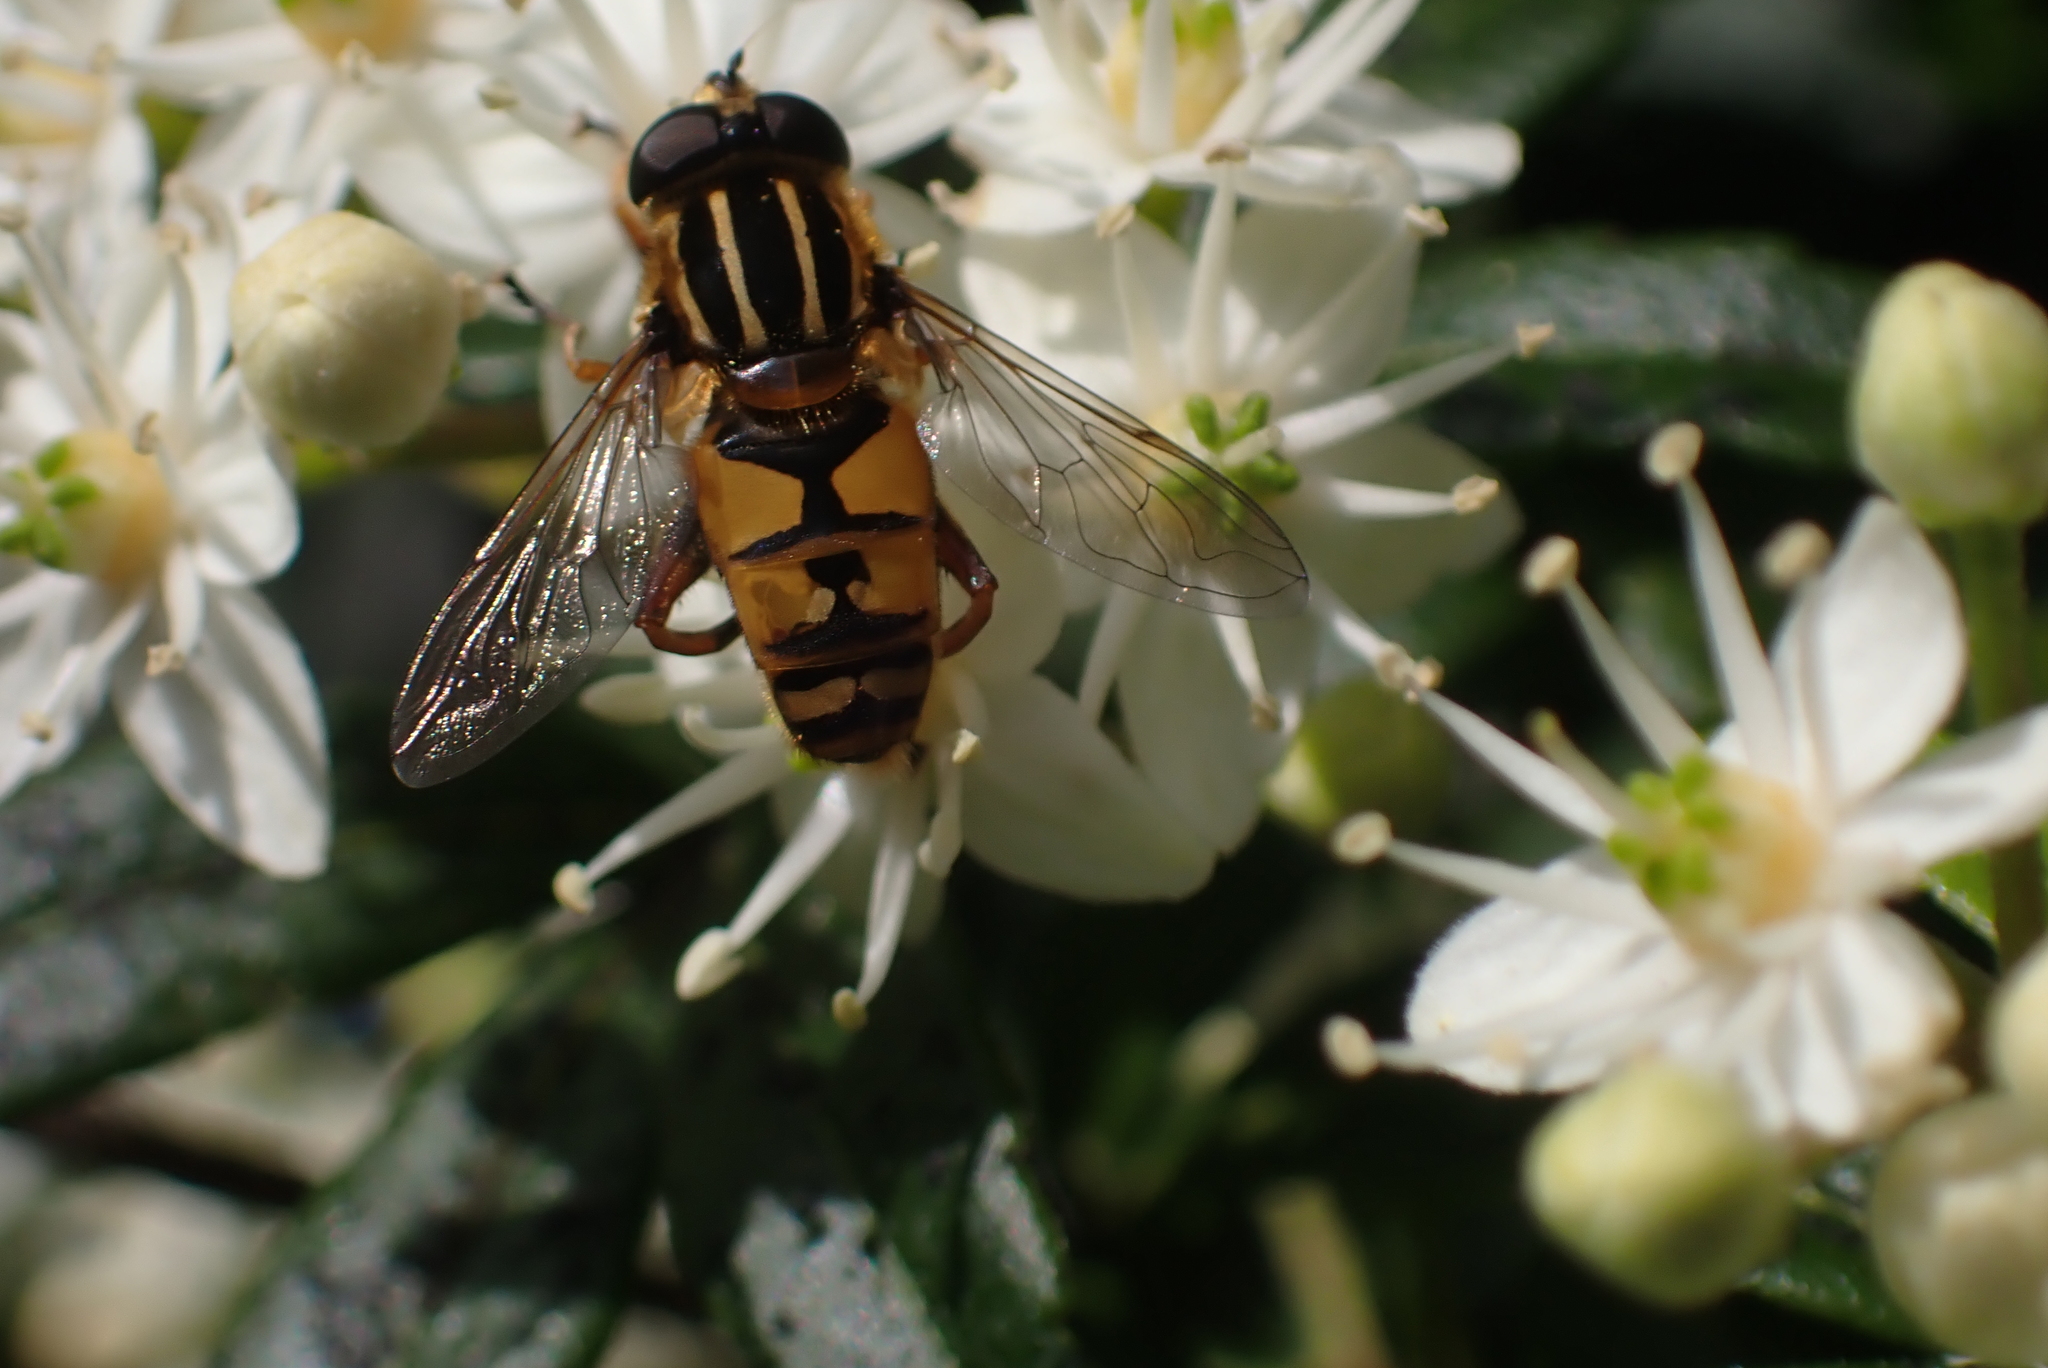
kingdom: Animalia
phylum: Arthropoda
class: Insecta
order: Diptera
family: Syrphidae
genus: Helophilus
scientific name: Helophilus pendulus
